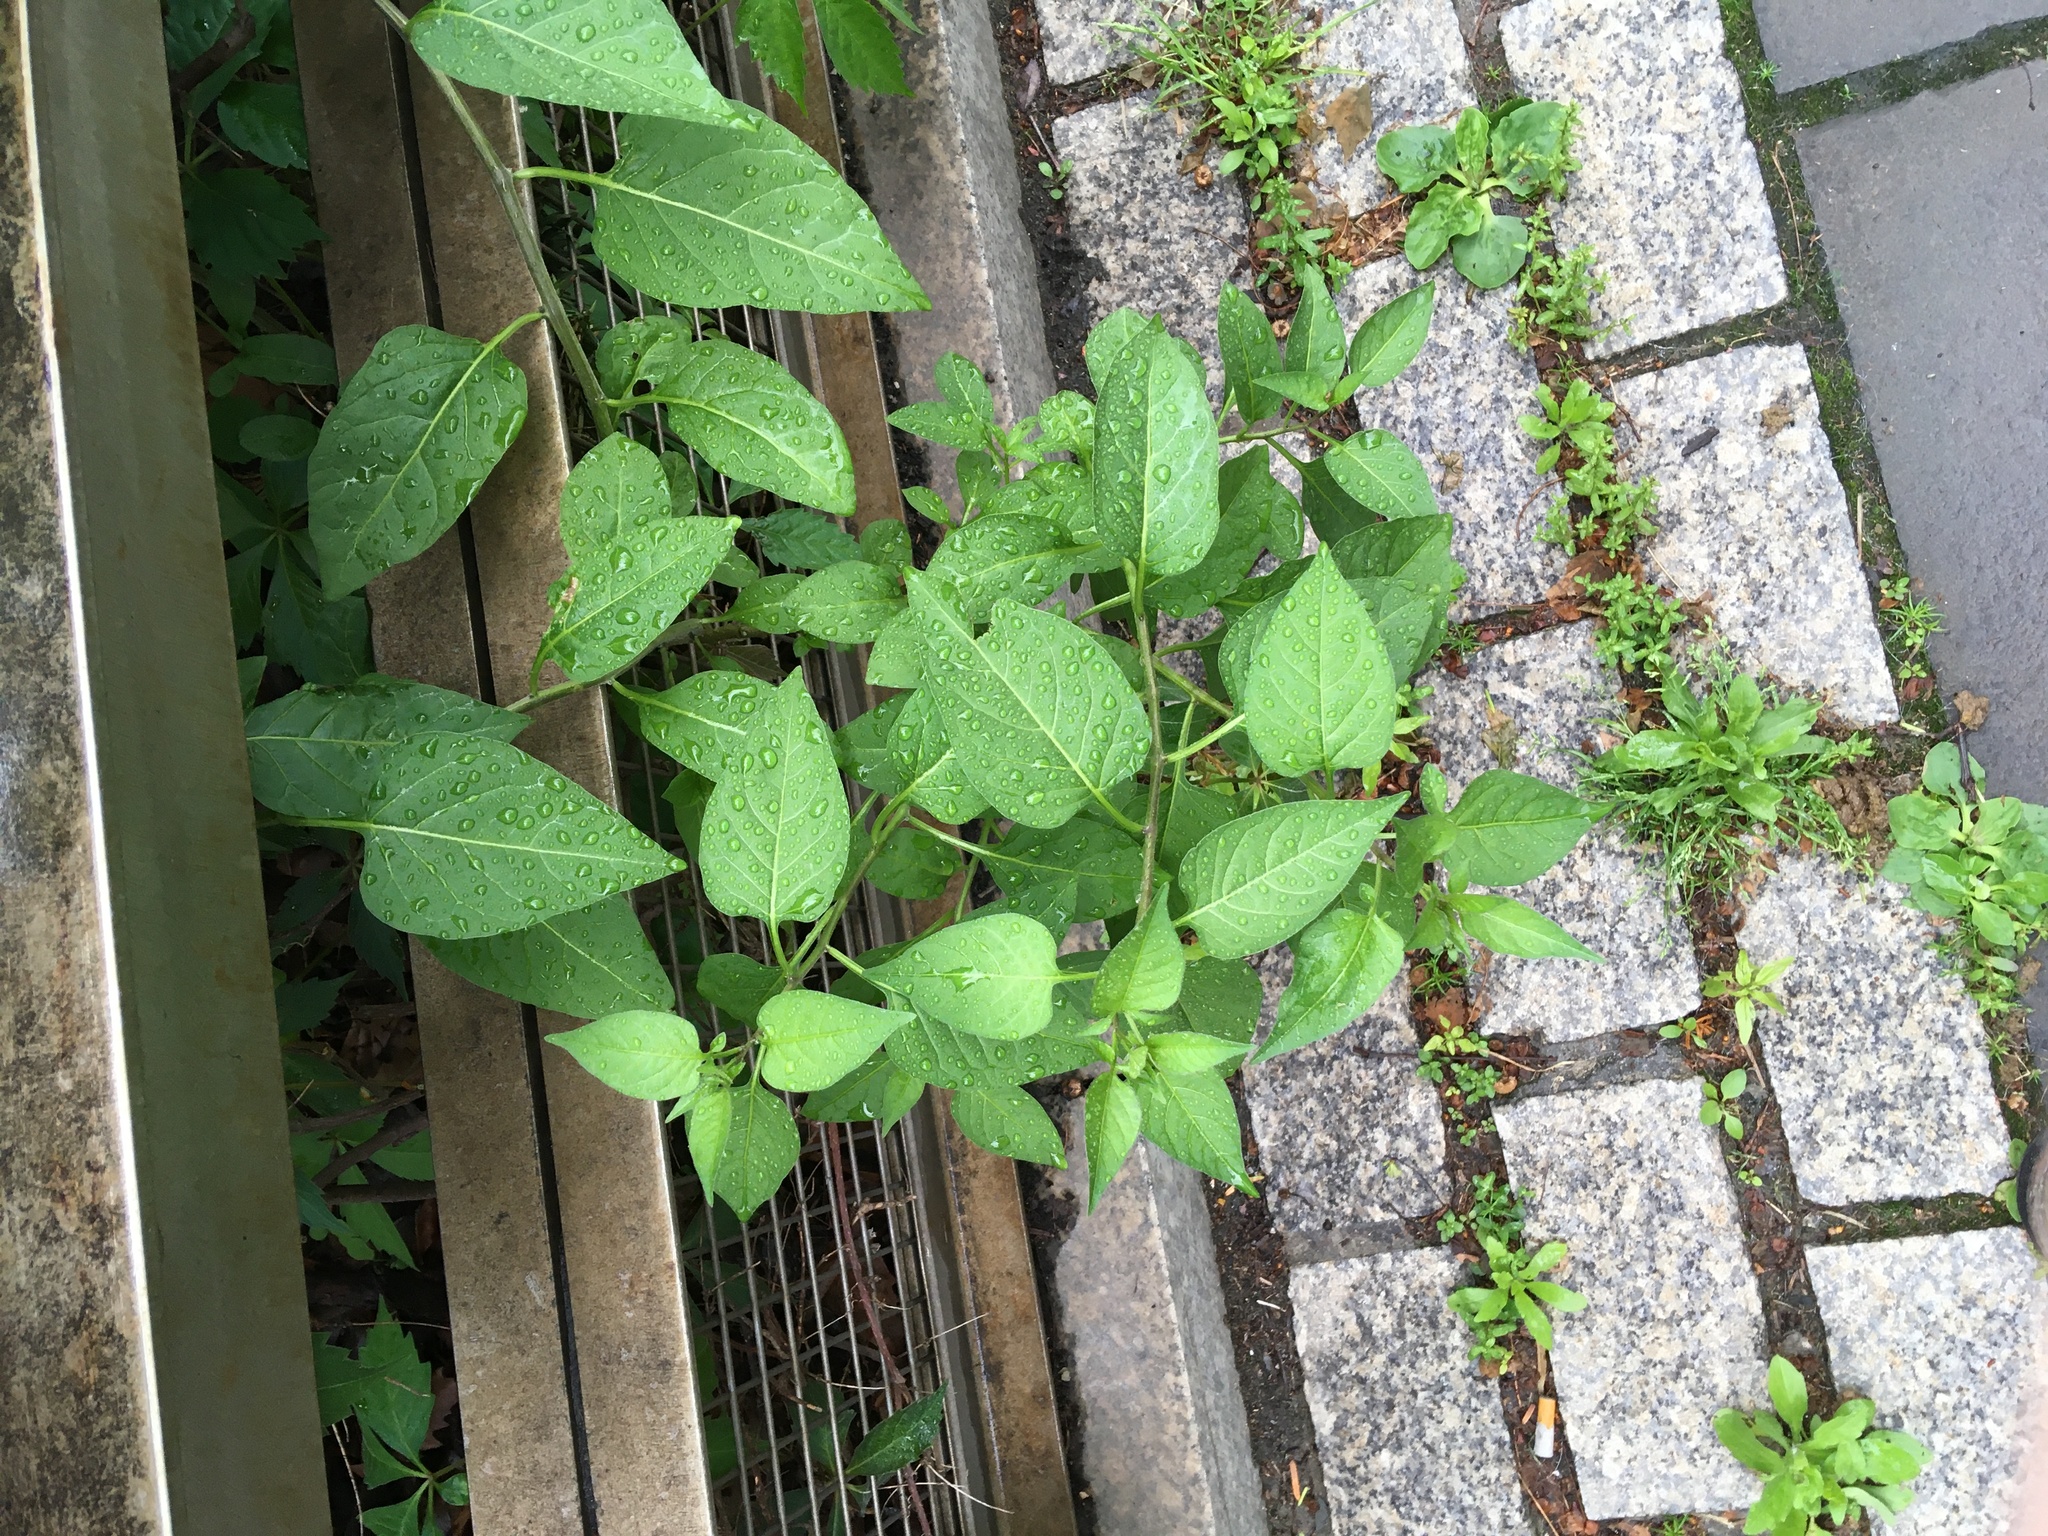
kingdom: Plantae
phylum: Tracheophyta
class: Magnoliopsida
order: Solanales
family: Solanaceae
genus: Solanum
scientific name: Solanum dulcamara
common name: Climbing nightshade
